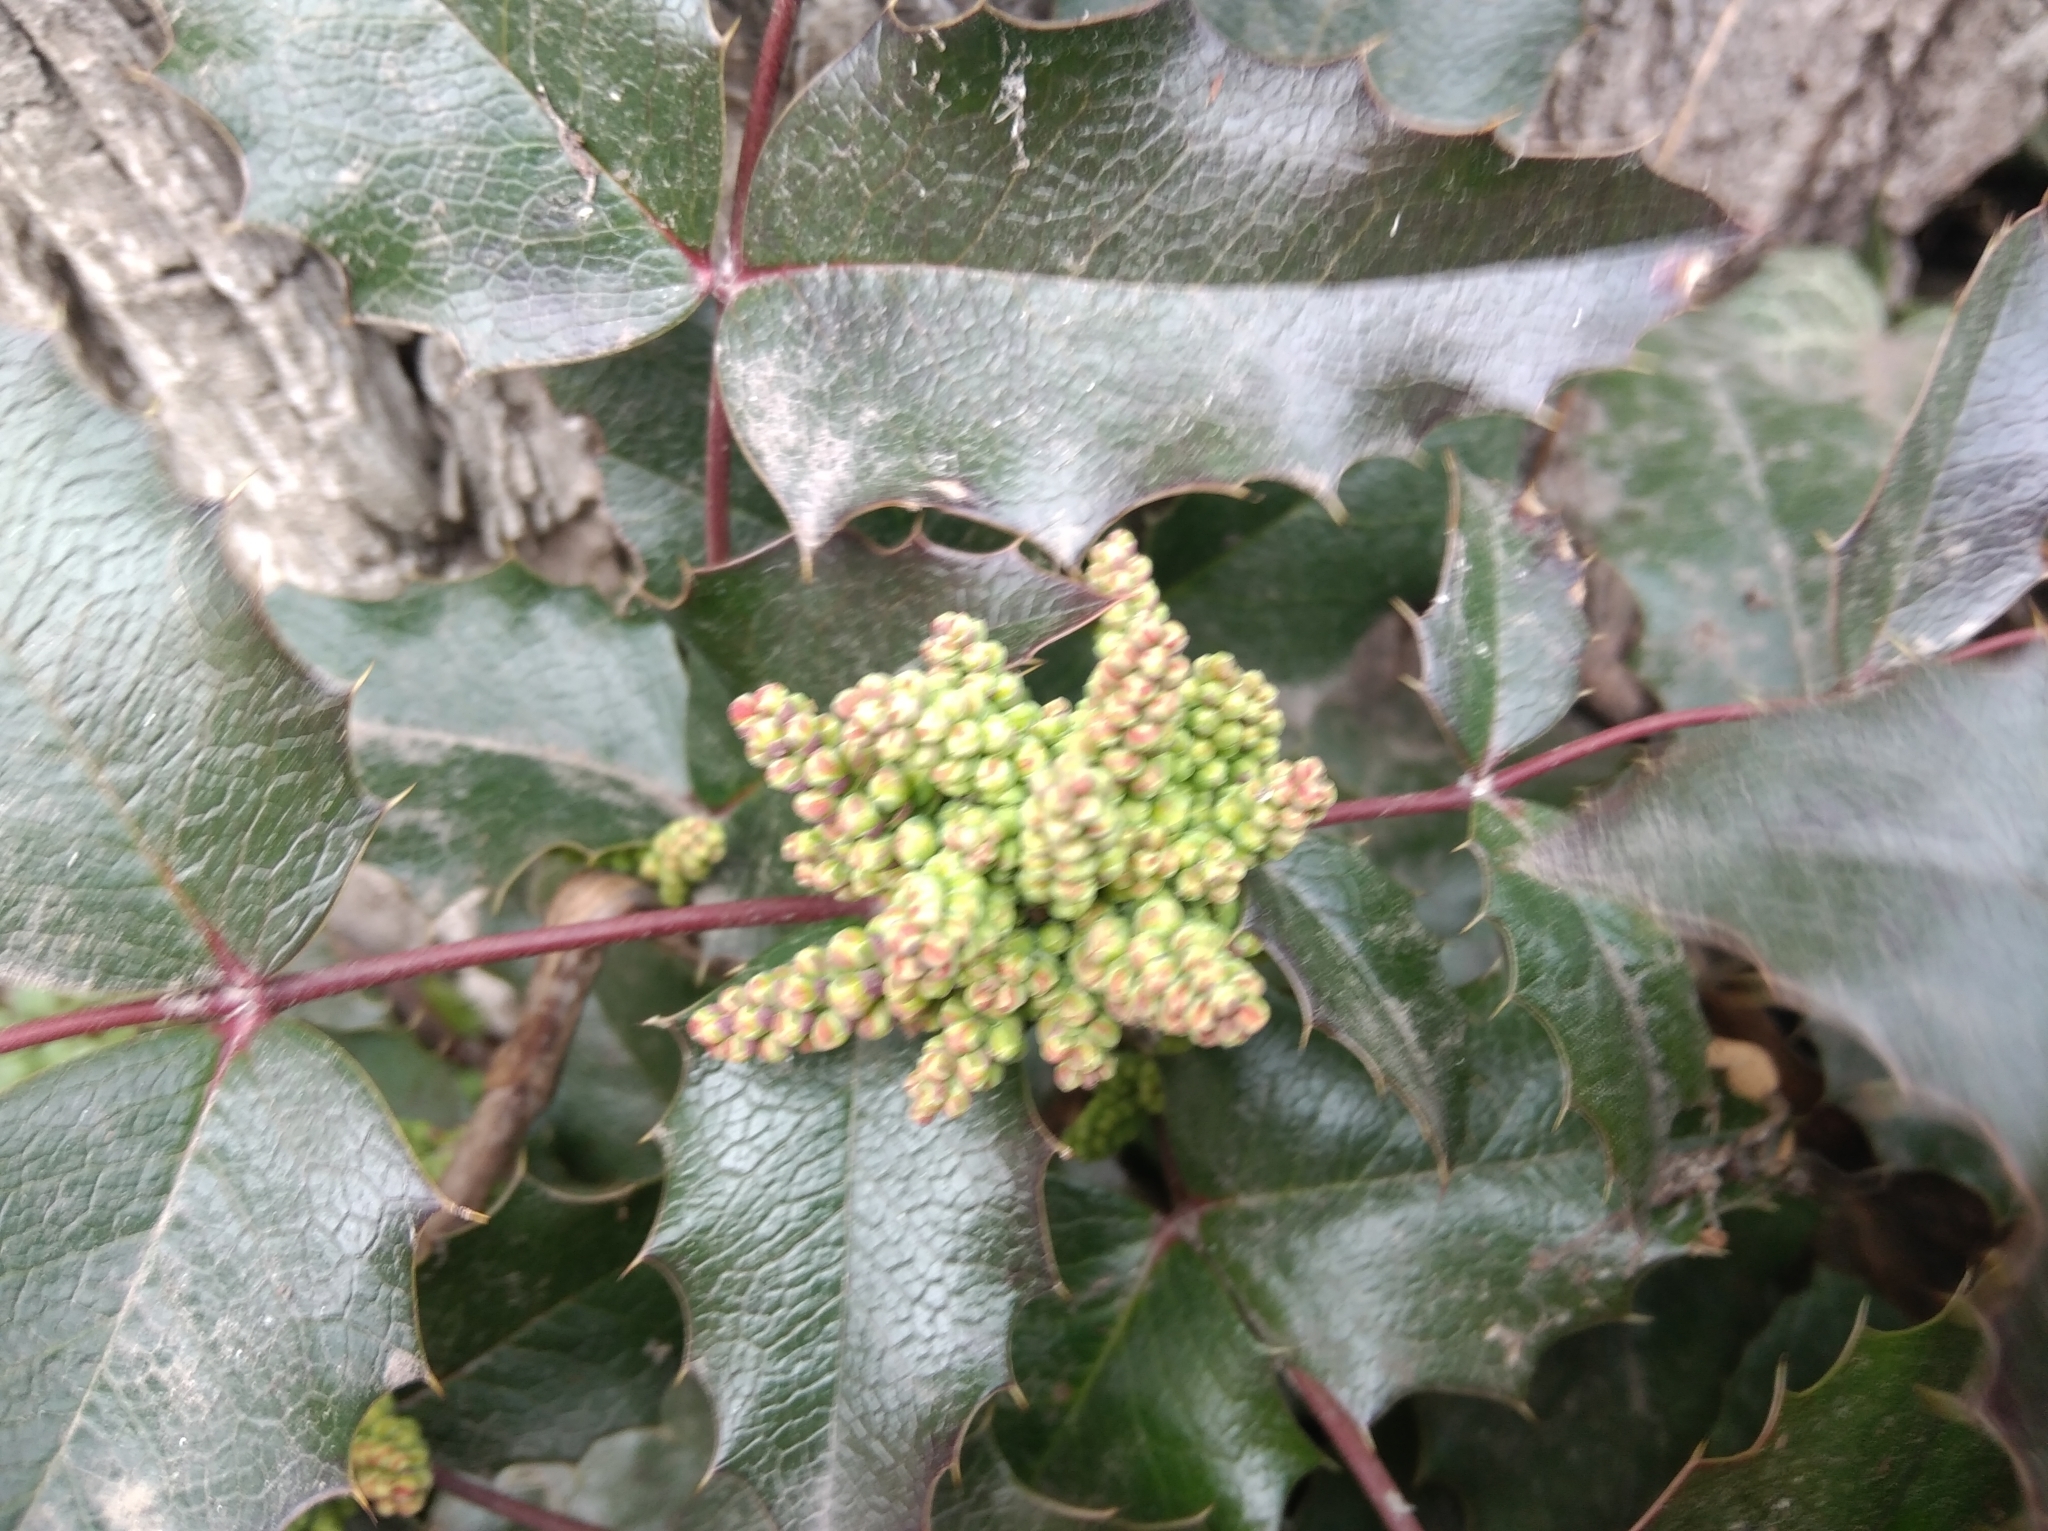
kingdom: Plantae
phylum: Tracheophyta
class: Magnoliopsida
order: Ranunculales
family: Berberidaceae
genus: Mahonia
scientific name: Mahonia aquifolium
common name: Oregon-grape
